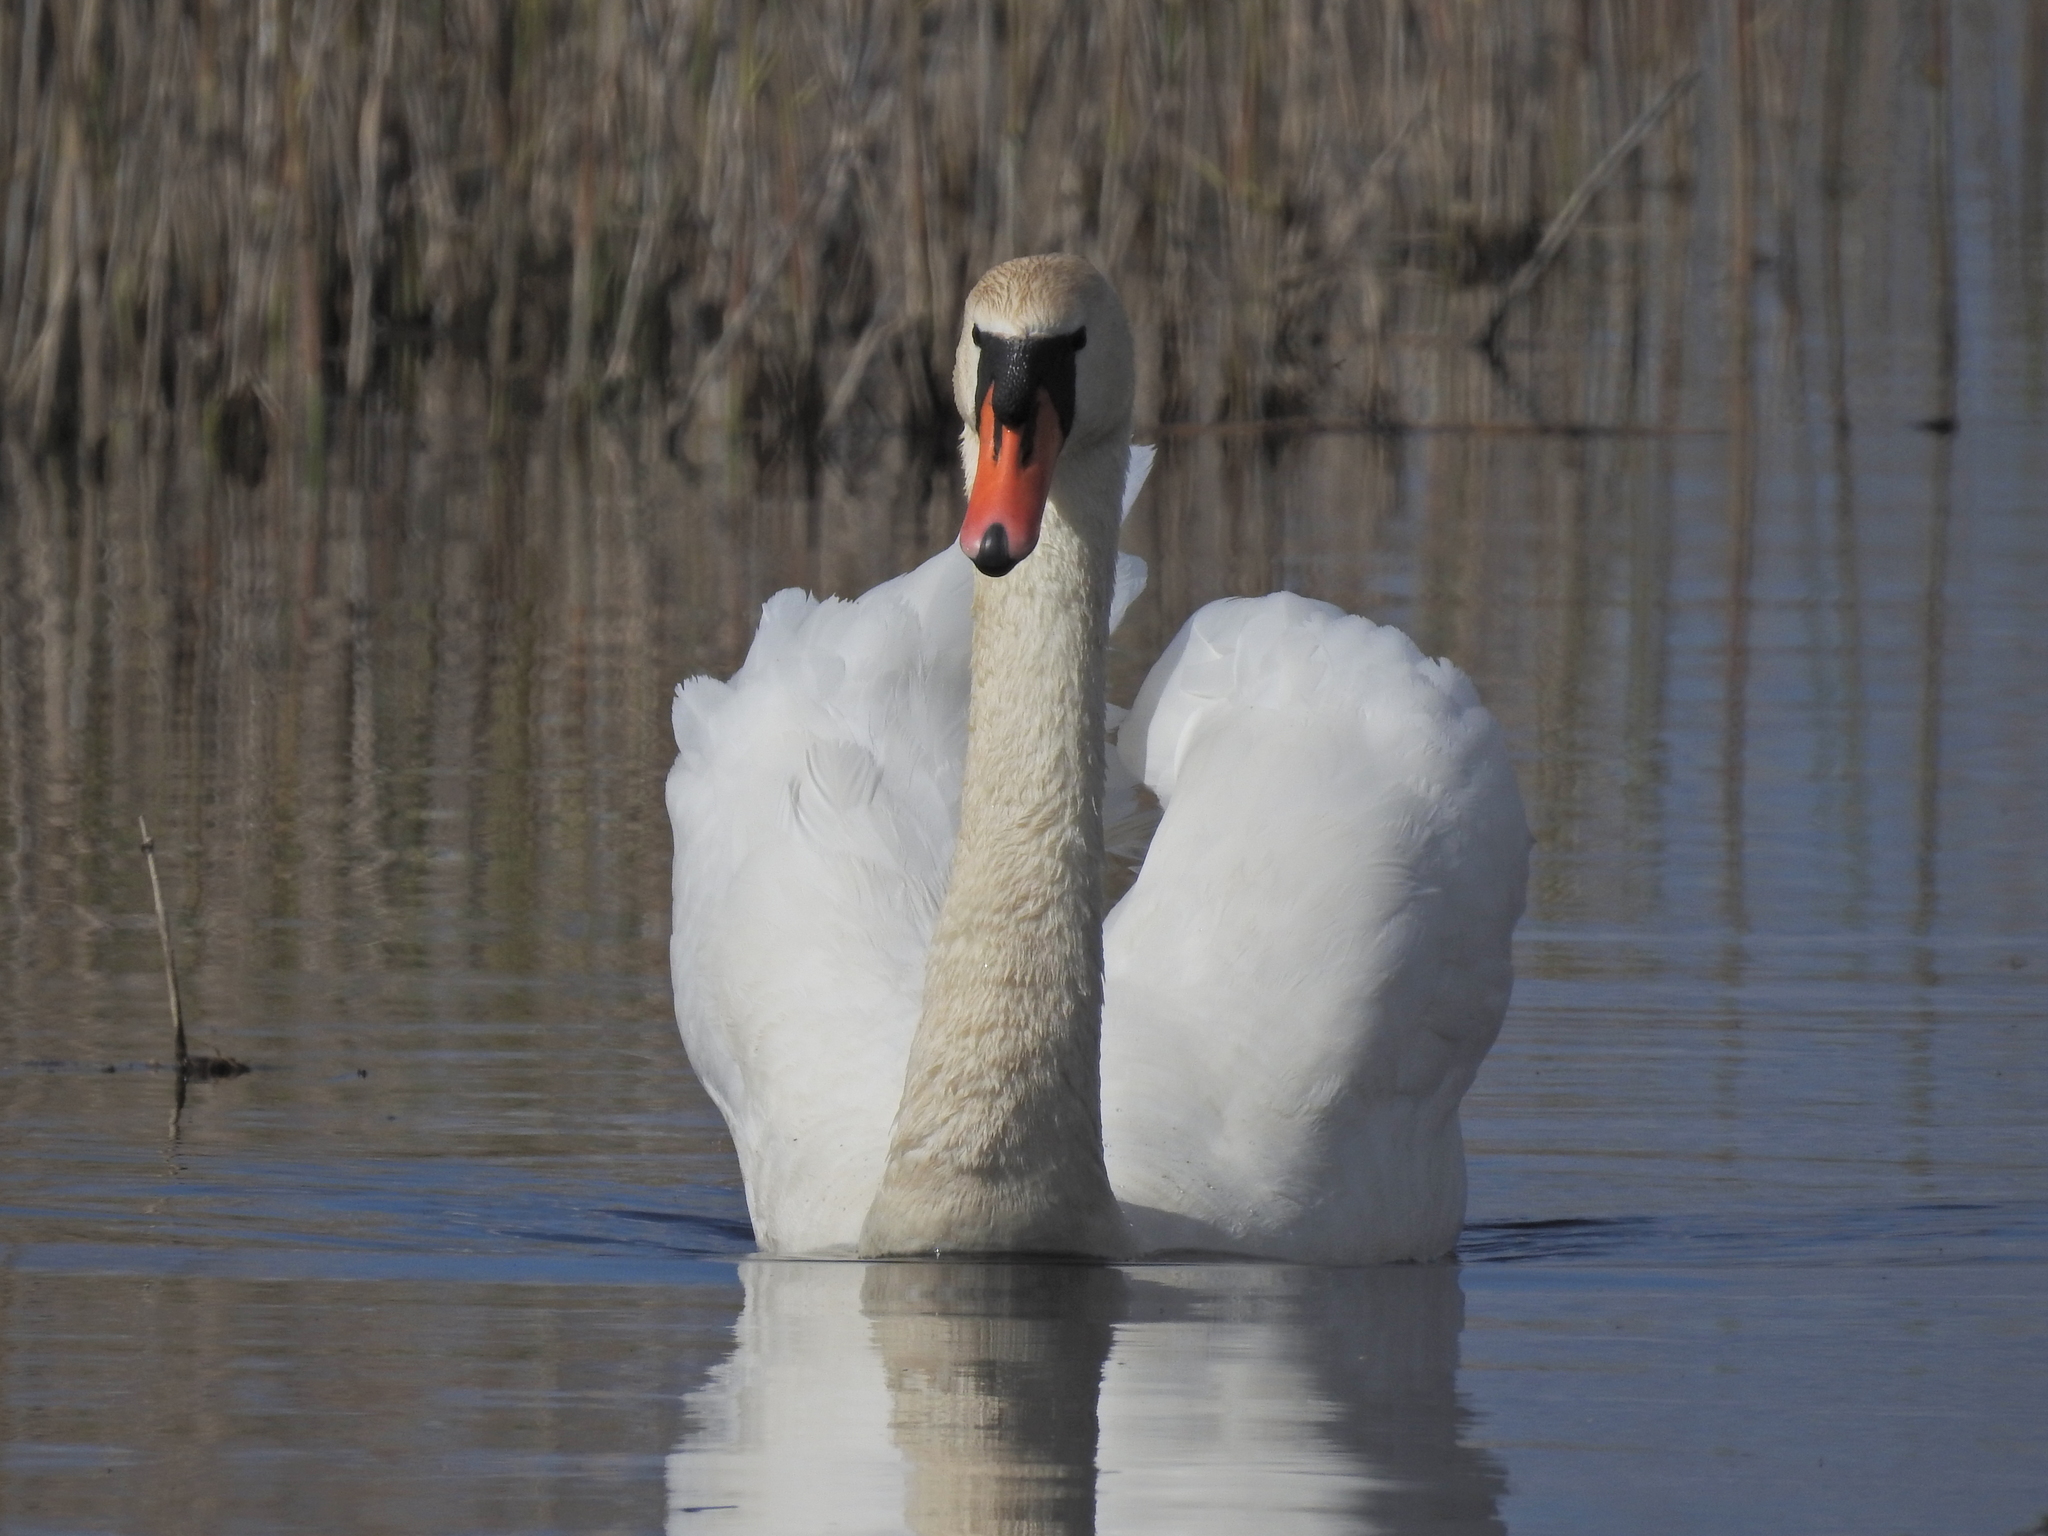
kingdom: Animalia
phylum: Chordata
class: Aves
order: Anseriformes
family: Anatidae
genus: Cygnus
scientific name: Cygnus olor
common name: Mute swan
